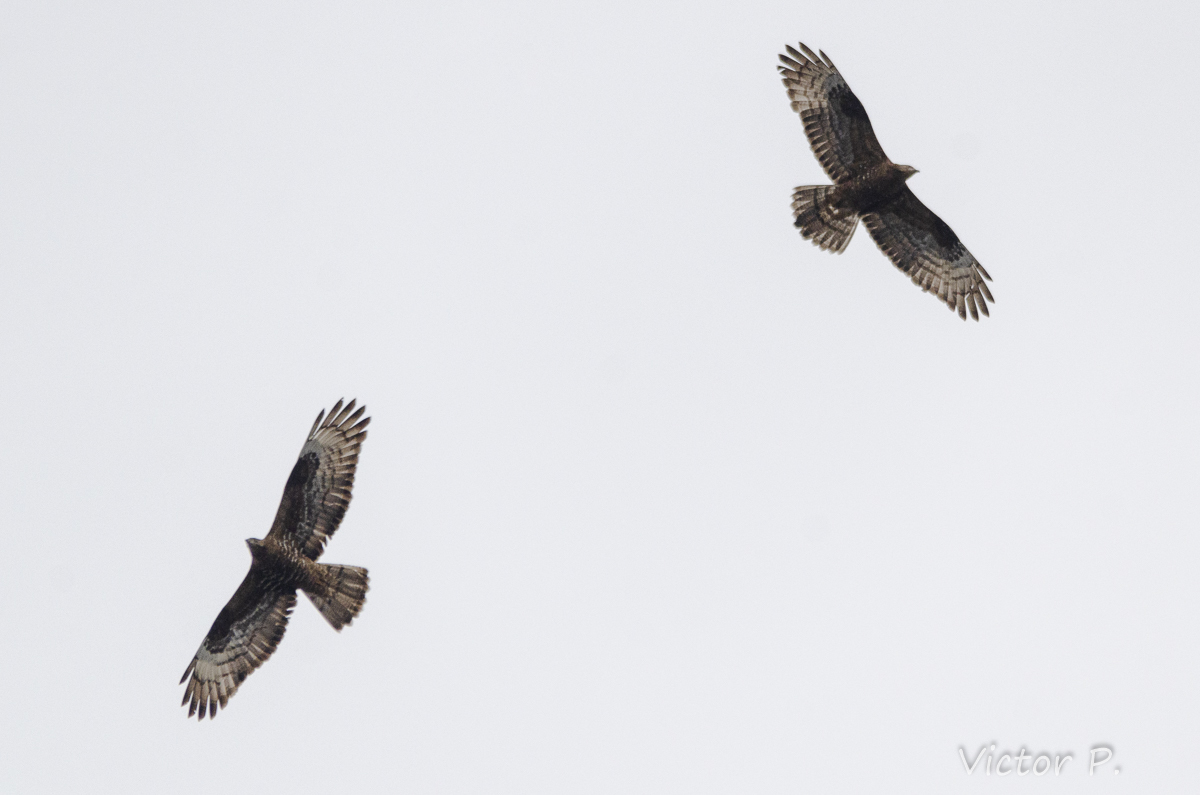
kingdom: Animalia
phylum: Chordata
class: Aves
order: Accipitriformes
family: Accipitridae
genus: Pernis
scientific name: Pernis apivorus
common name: European honey buzzard
